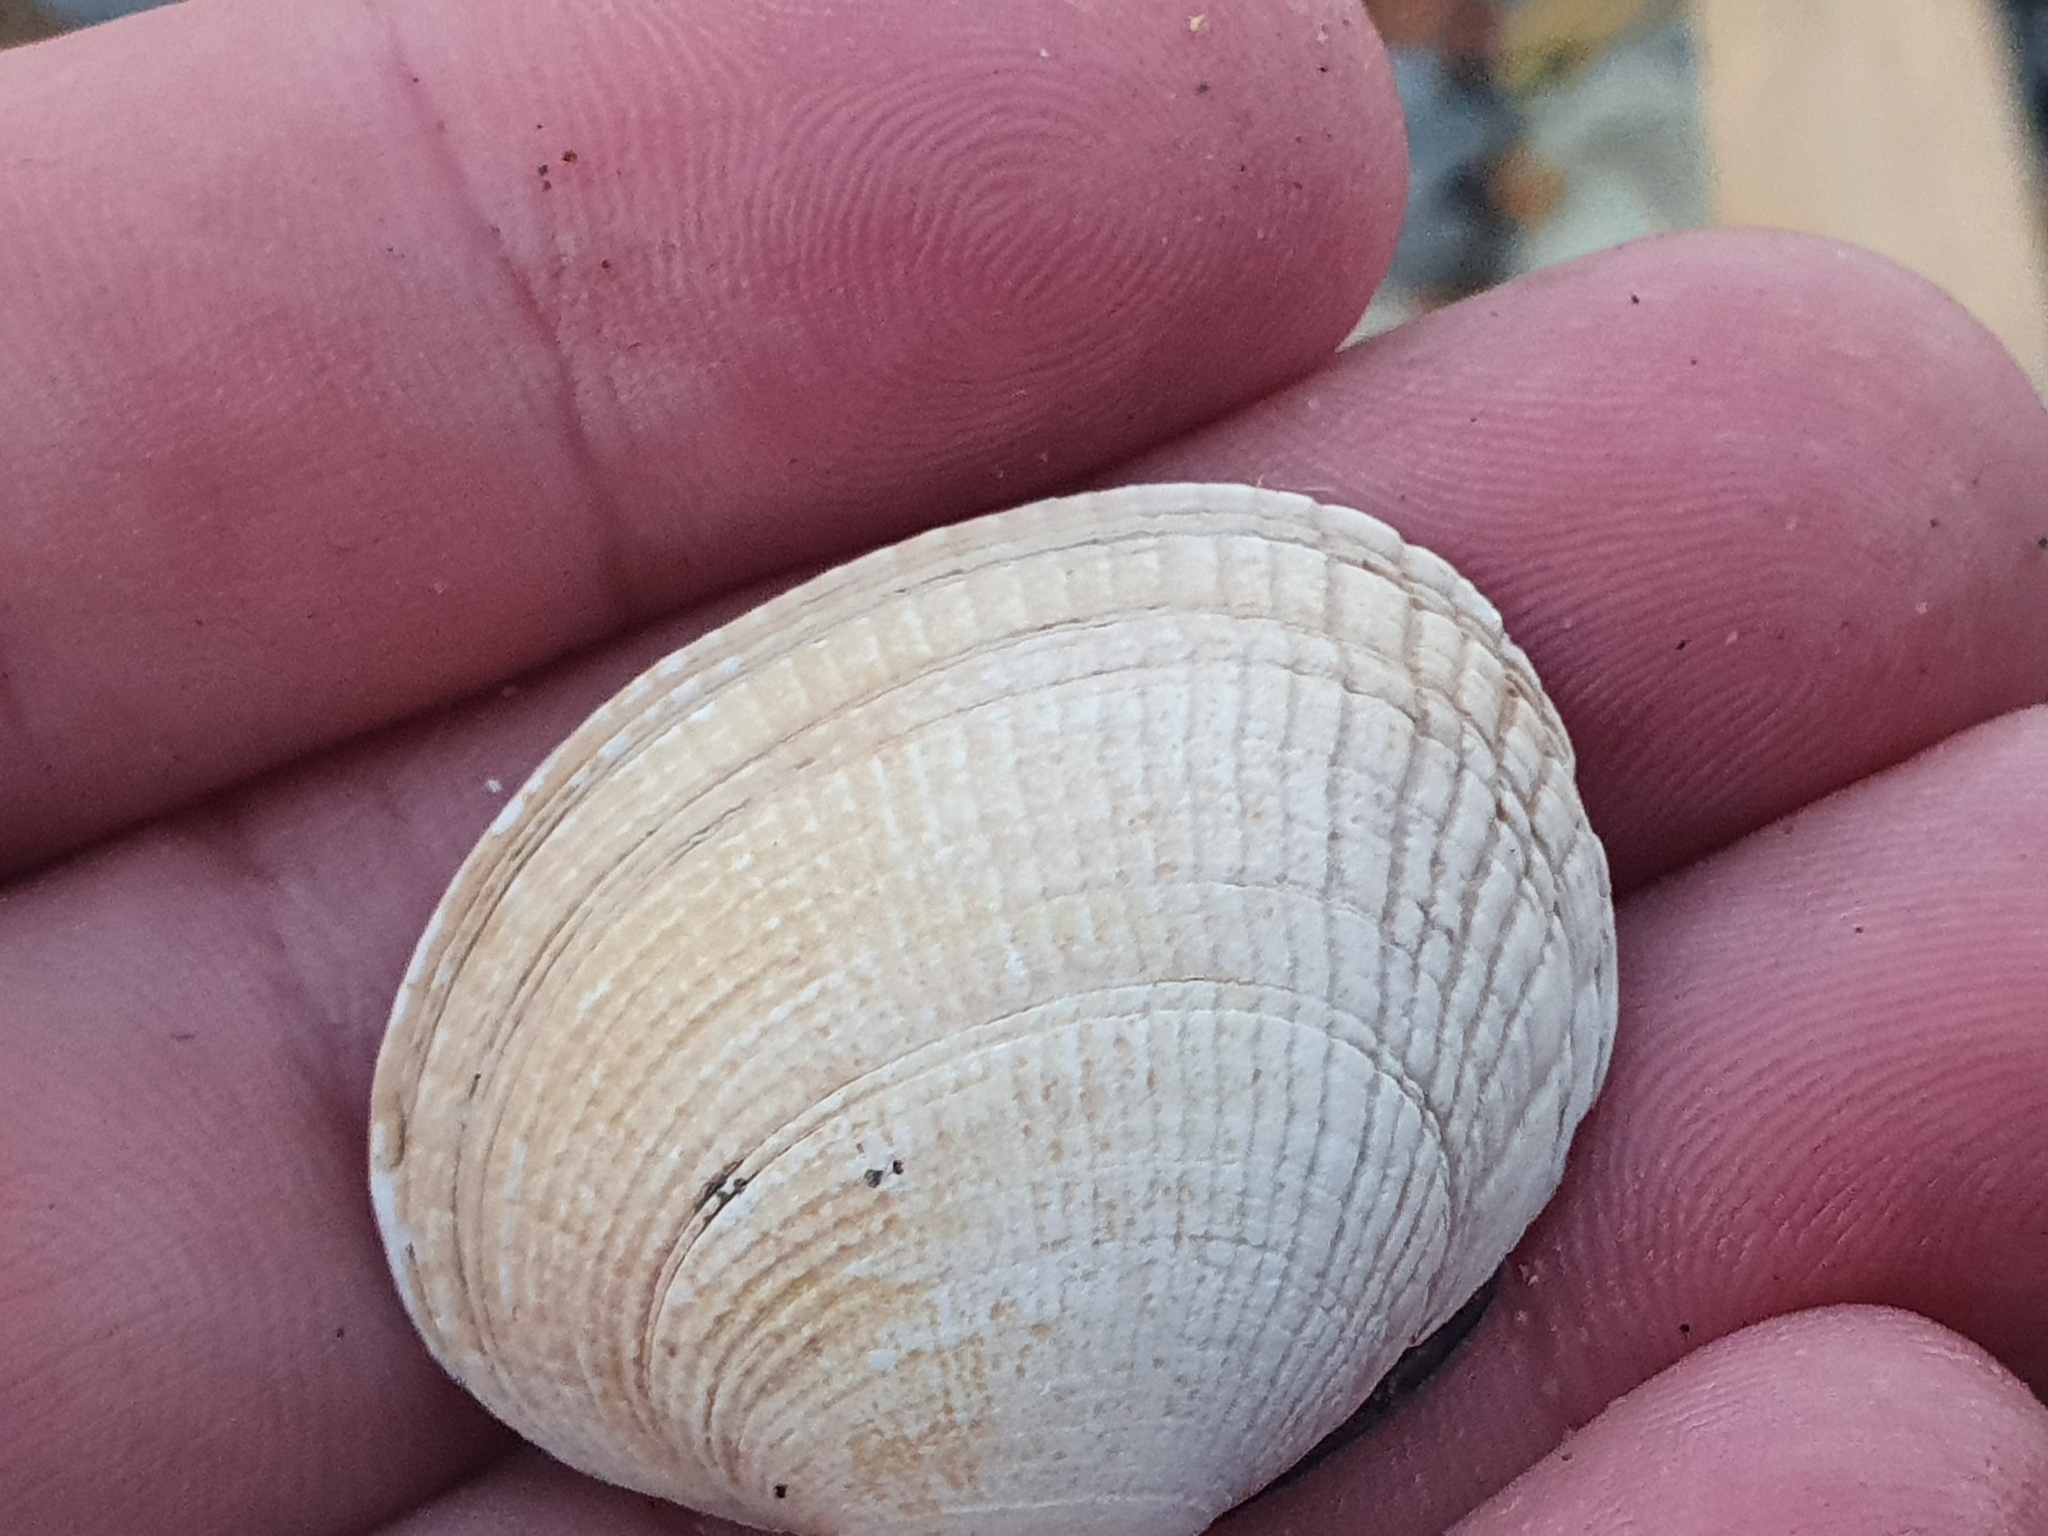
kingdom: Animalia
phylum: Mollusca
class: Bivalvia
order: Venerida
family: Veneridae
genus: Leukoma
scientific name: Leukoma crassicosta
